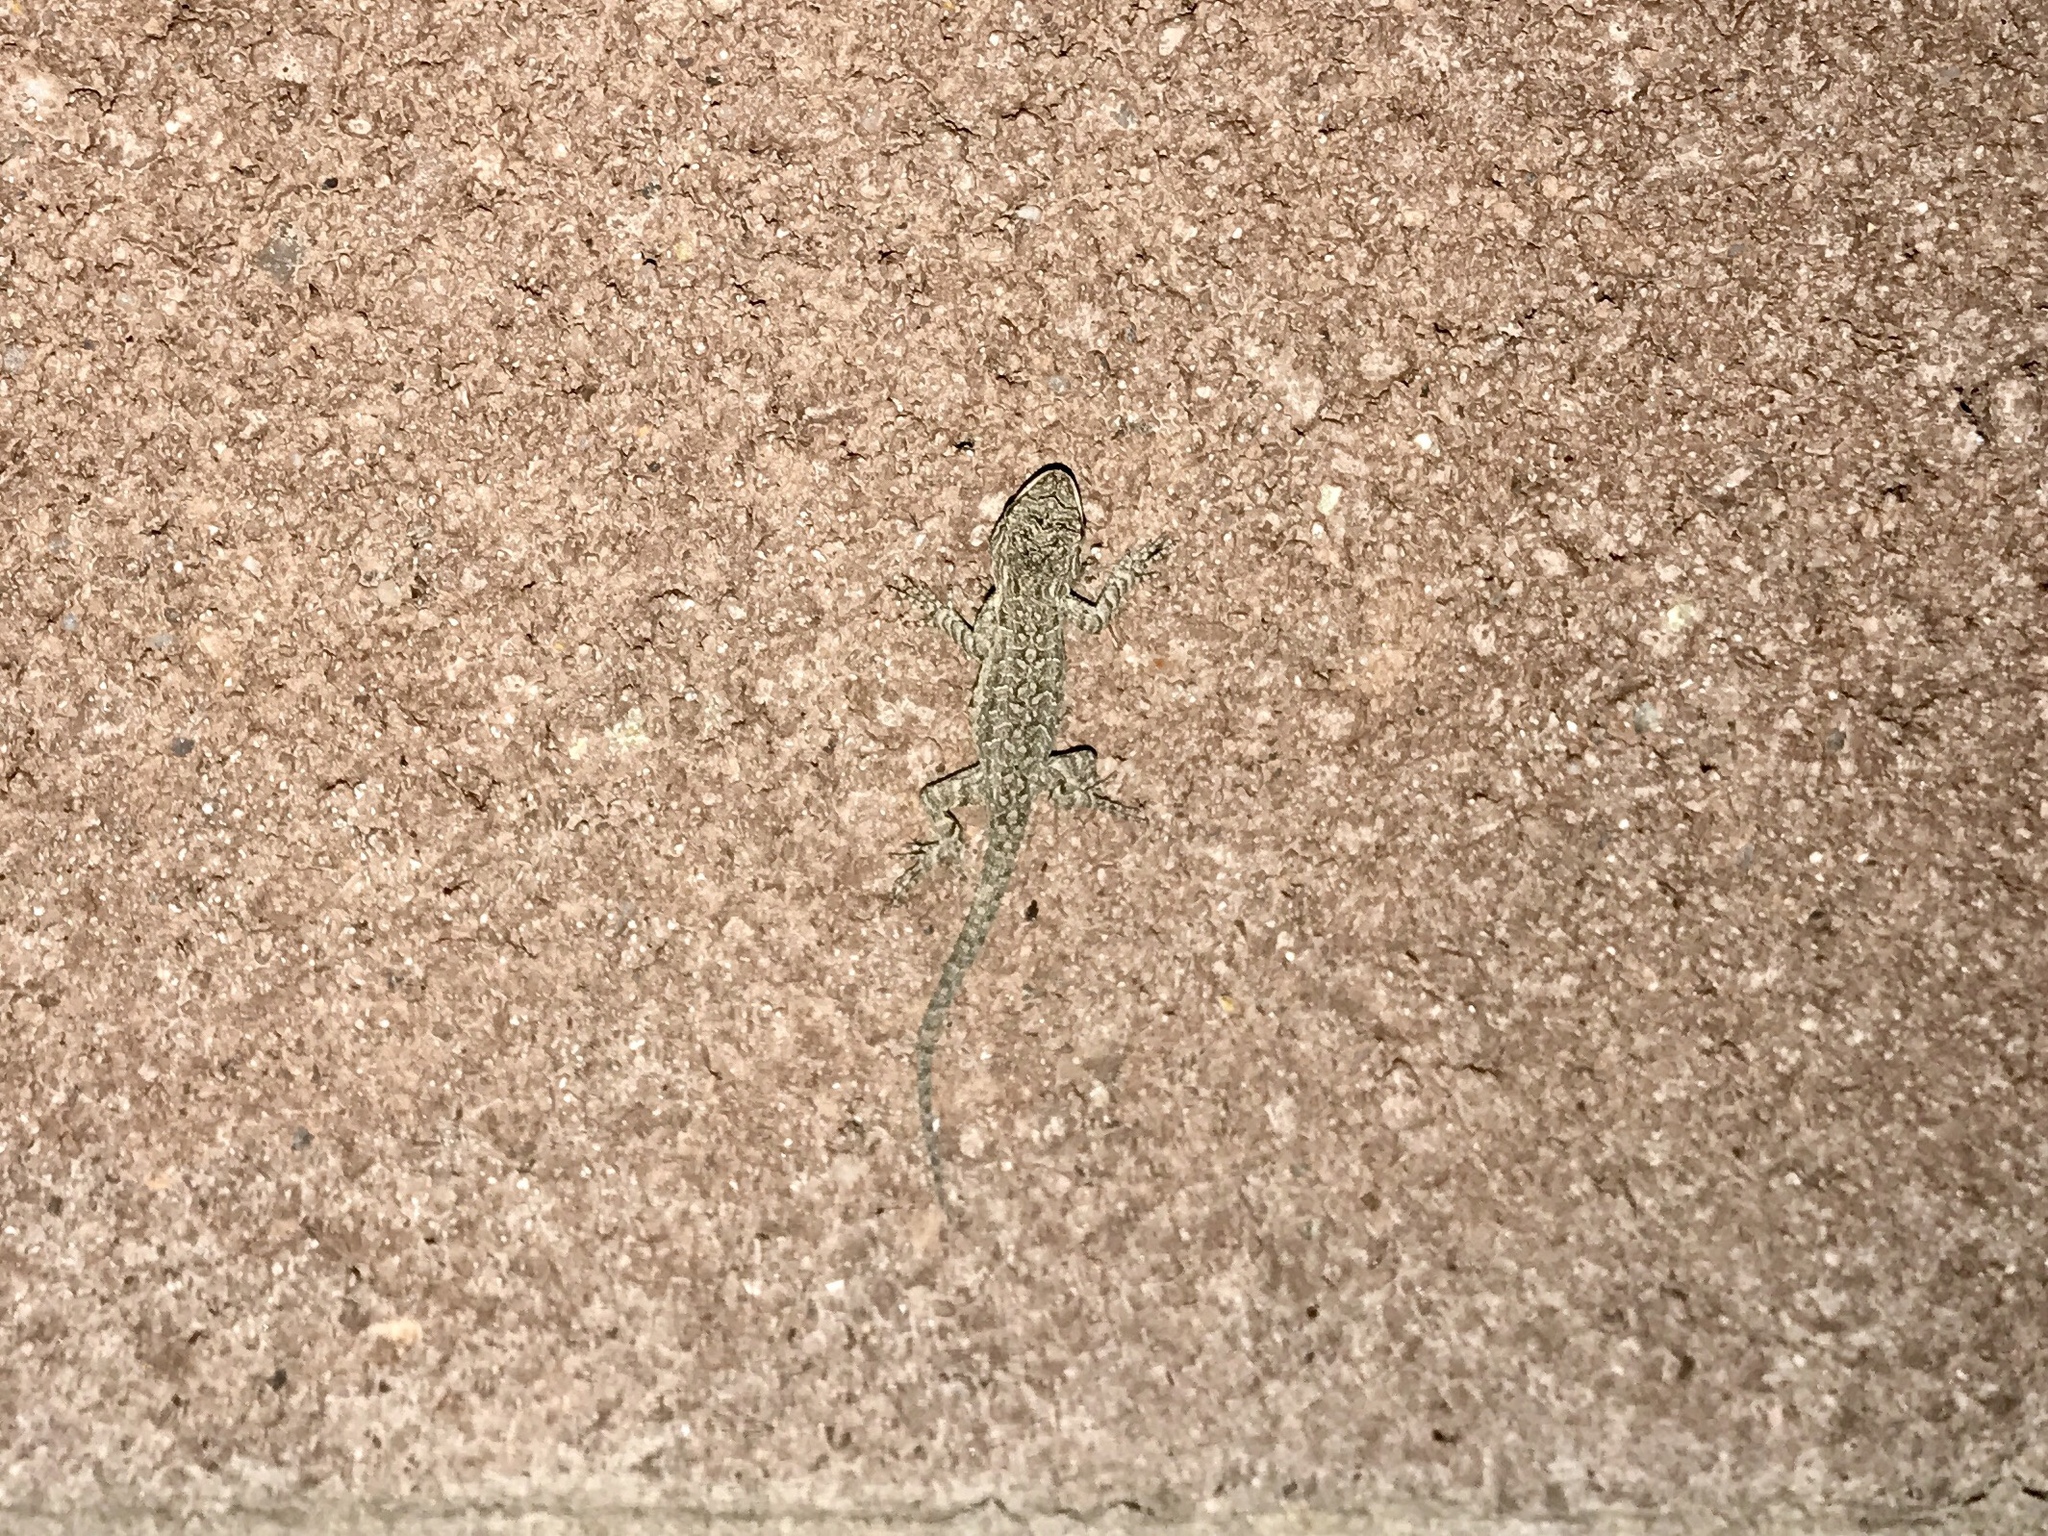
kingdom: Animalia
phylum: Chordata
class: Squamata
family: Phrynosomatidae
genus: Urosaurus
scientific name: Urosaurus ornatus
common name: Ornate tree lizard
